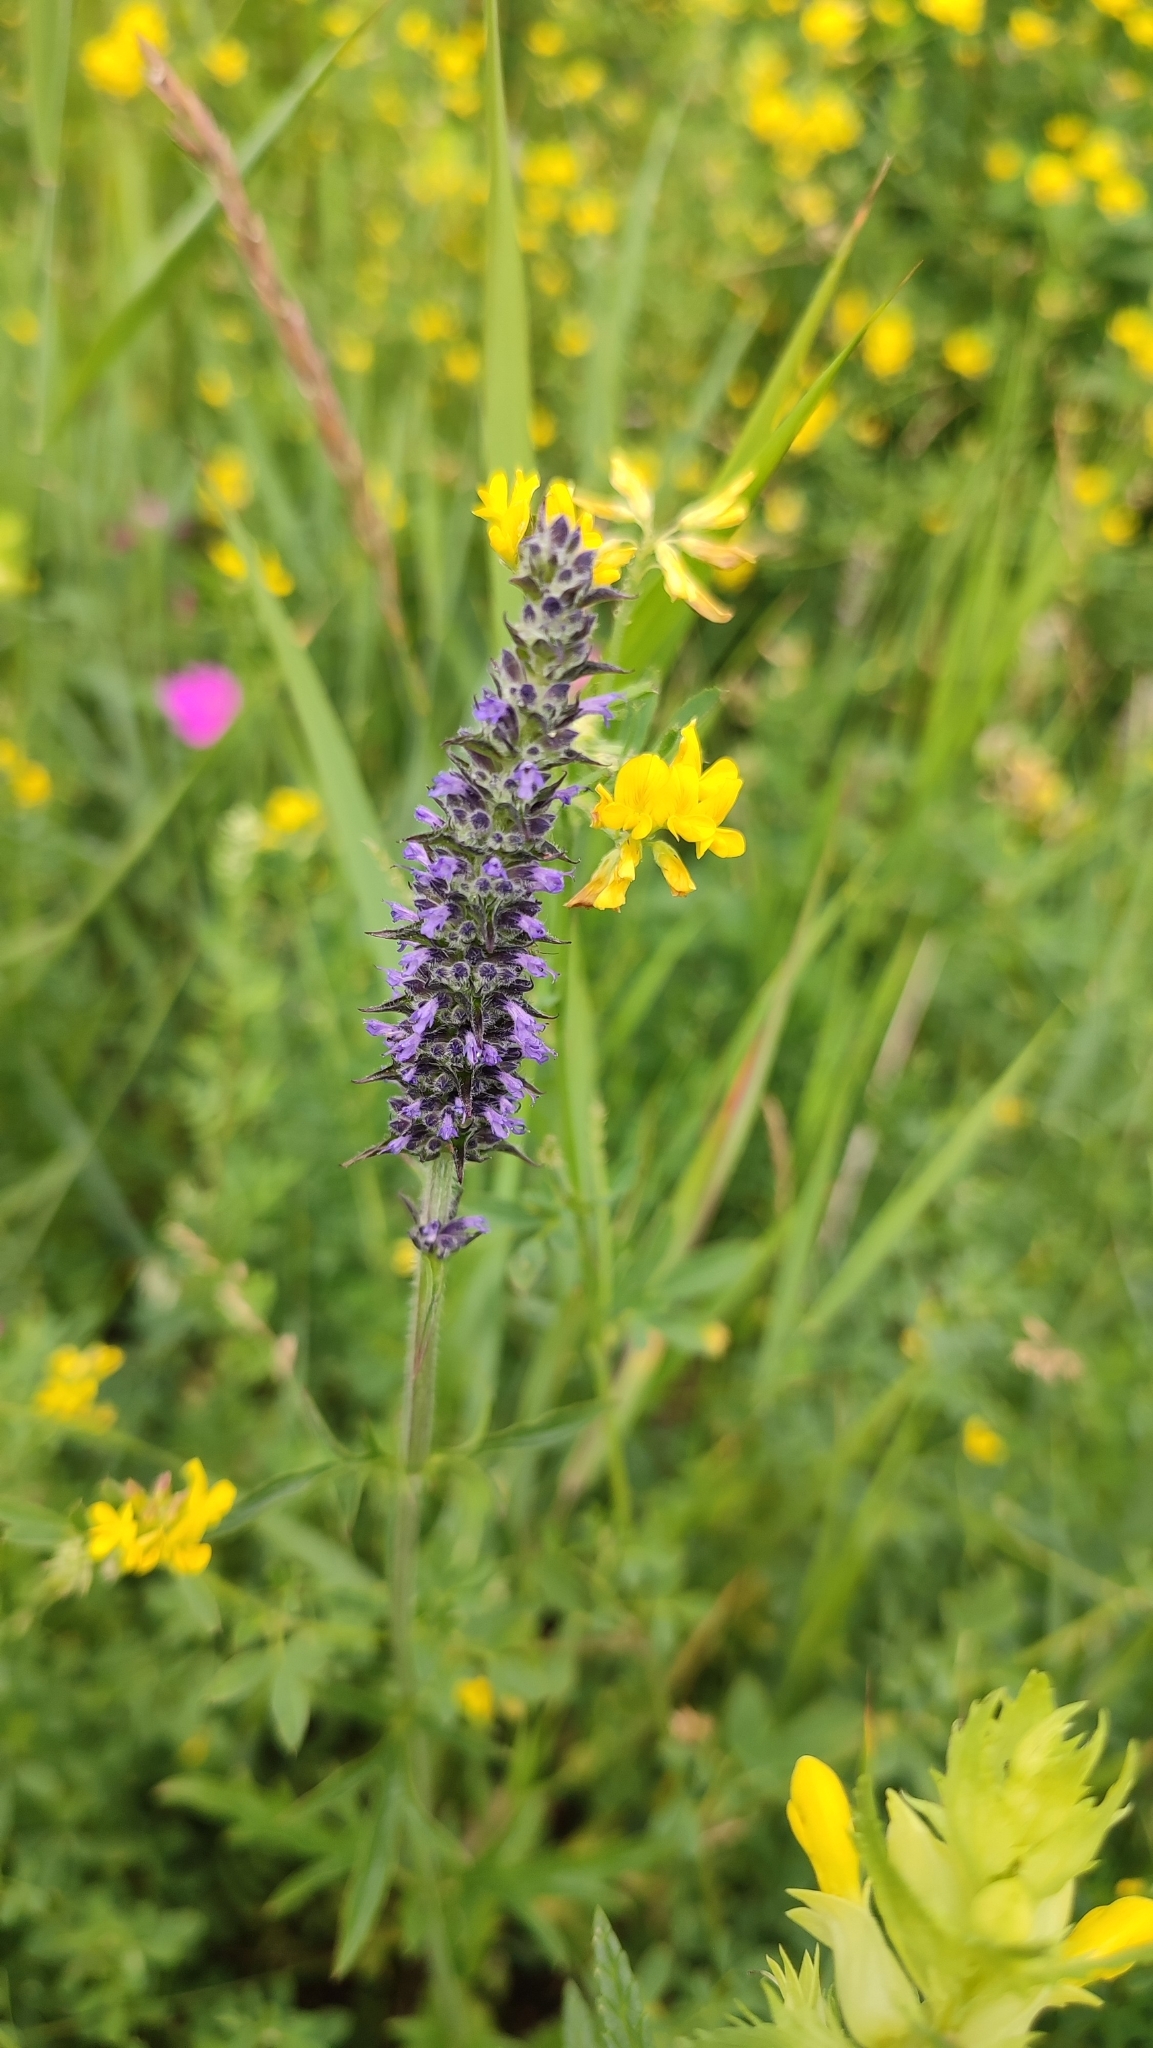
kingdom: Plantae
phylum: Tracheophyta
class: Magnoliopsida
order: Lamiales
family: Lamiaceae
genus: Nepeta
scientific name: Nepeta multifida
